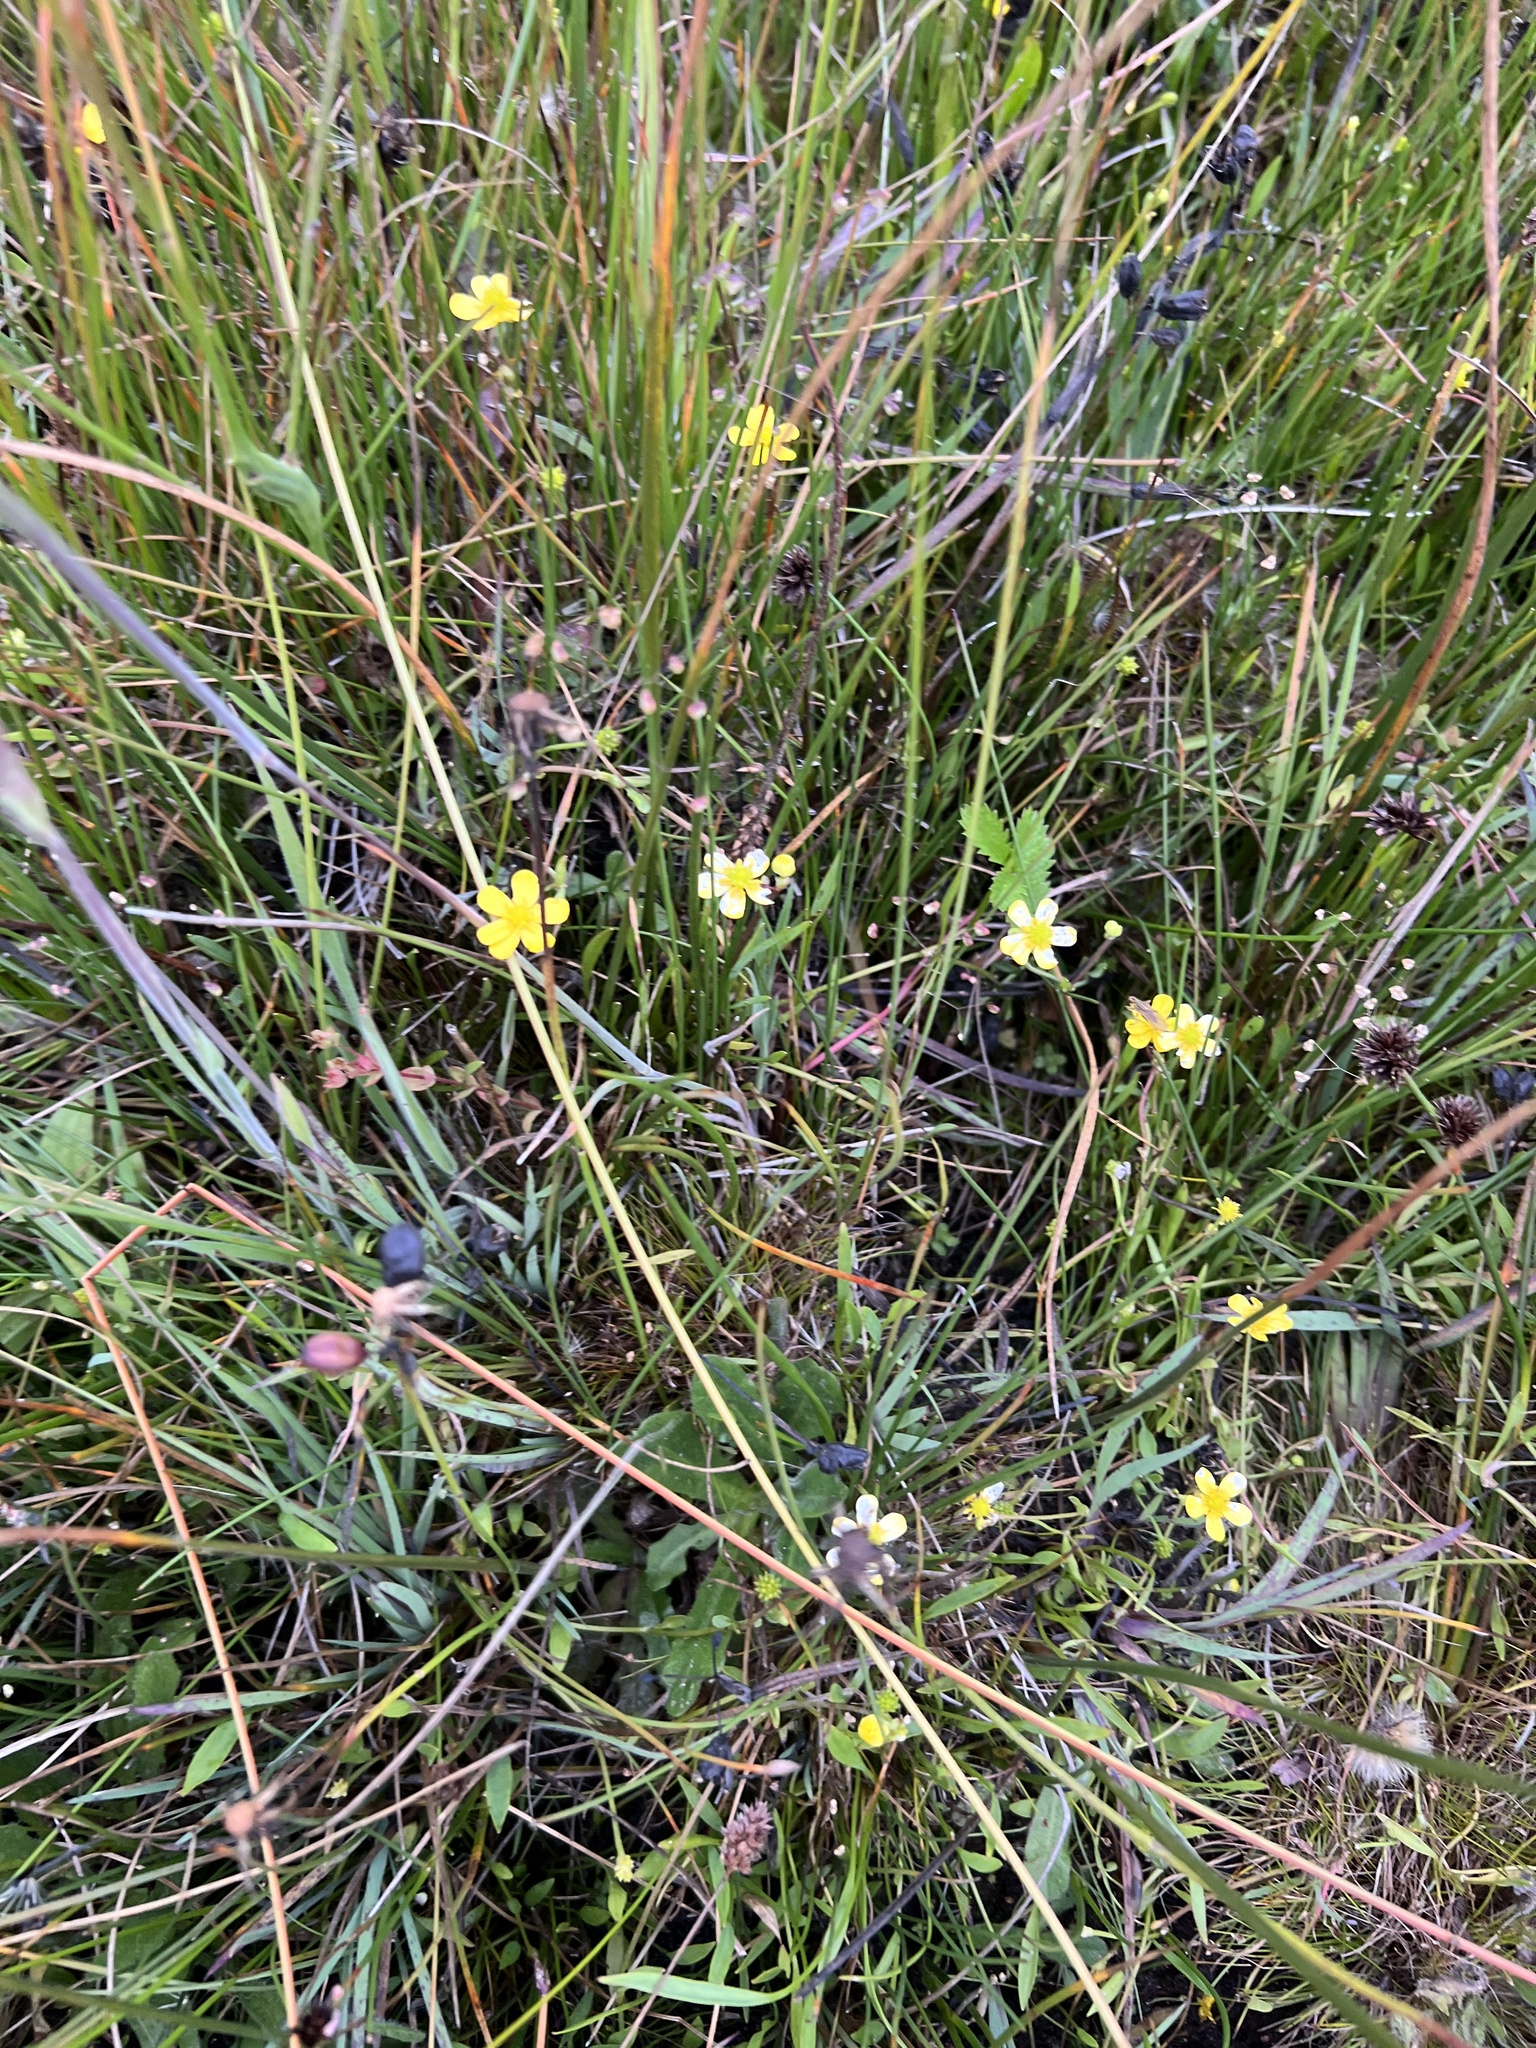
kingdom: Plantae
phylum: Tracheophyta
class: Magnoliopsida
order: Ranunculales
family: Ranunculaceae
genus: Ranunculus
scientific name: Ranunculus flammula
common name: Lesser spearwort
